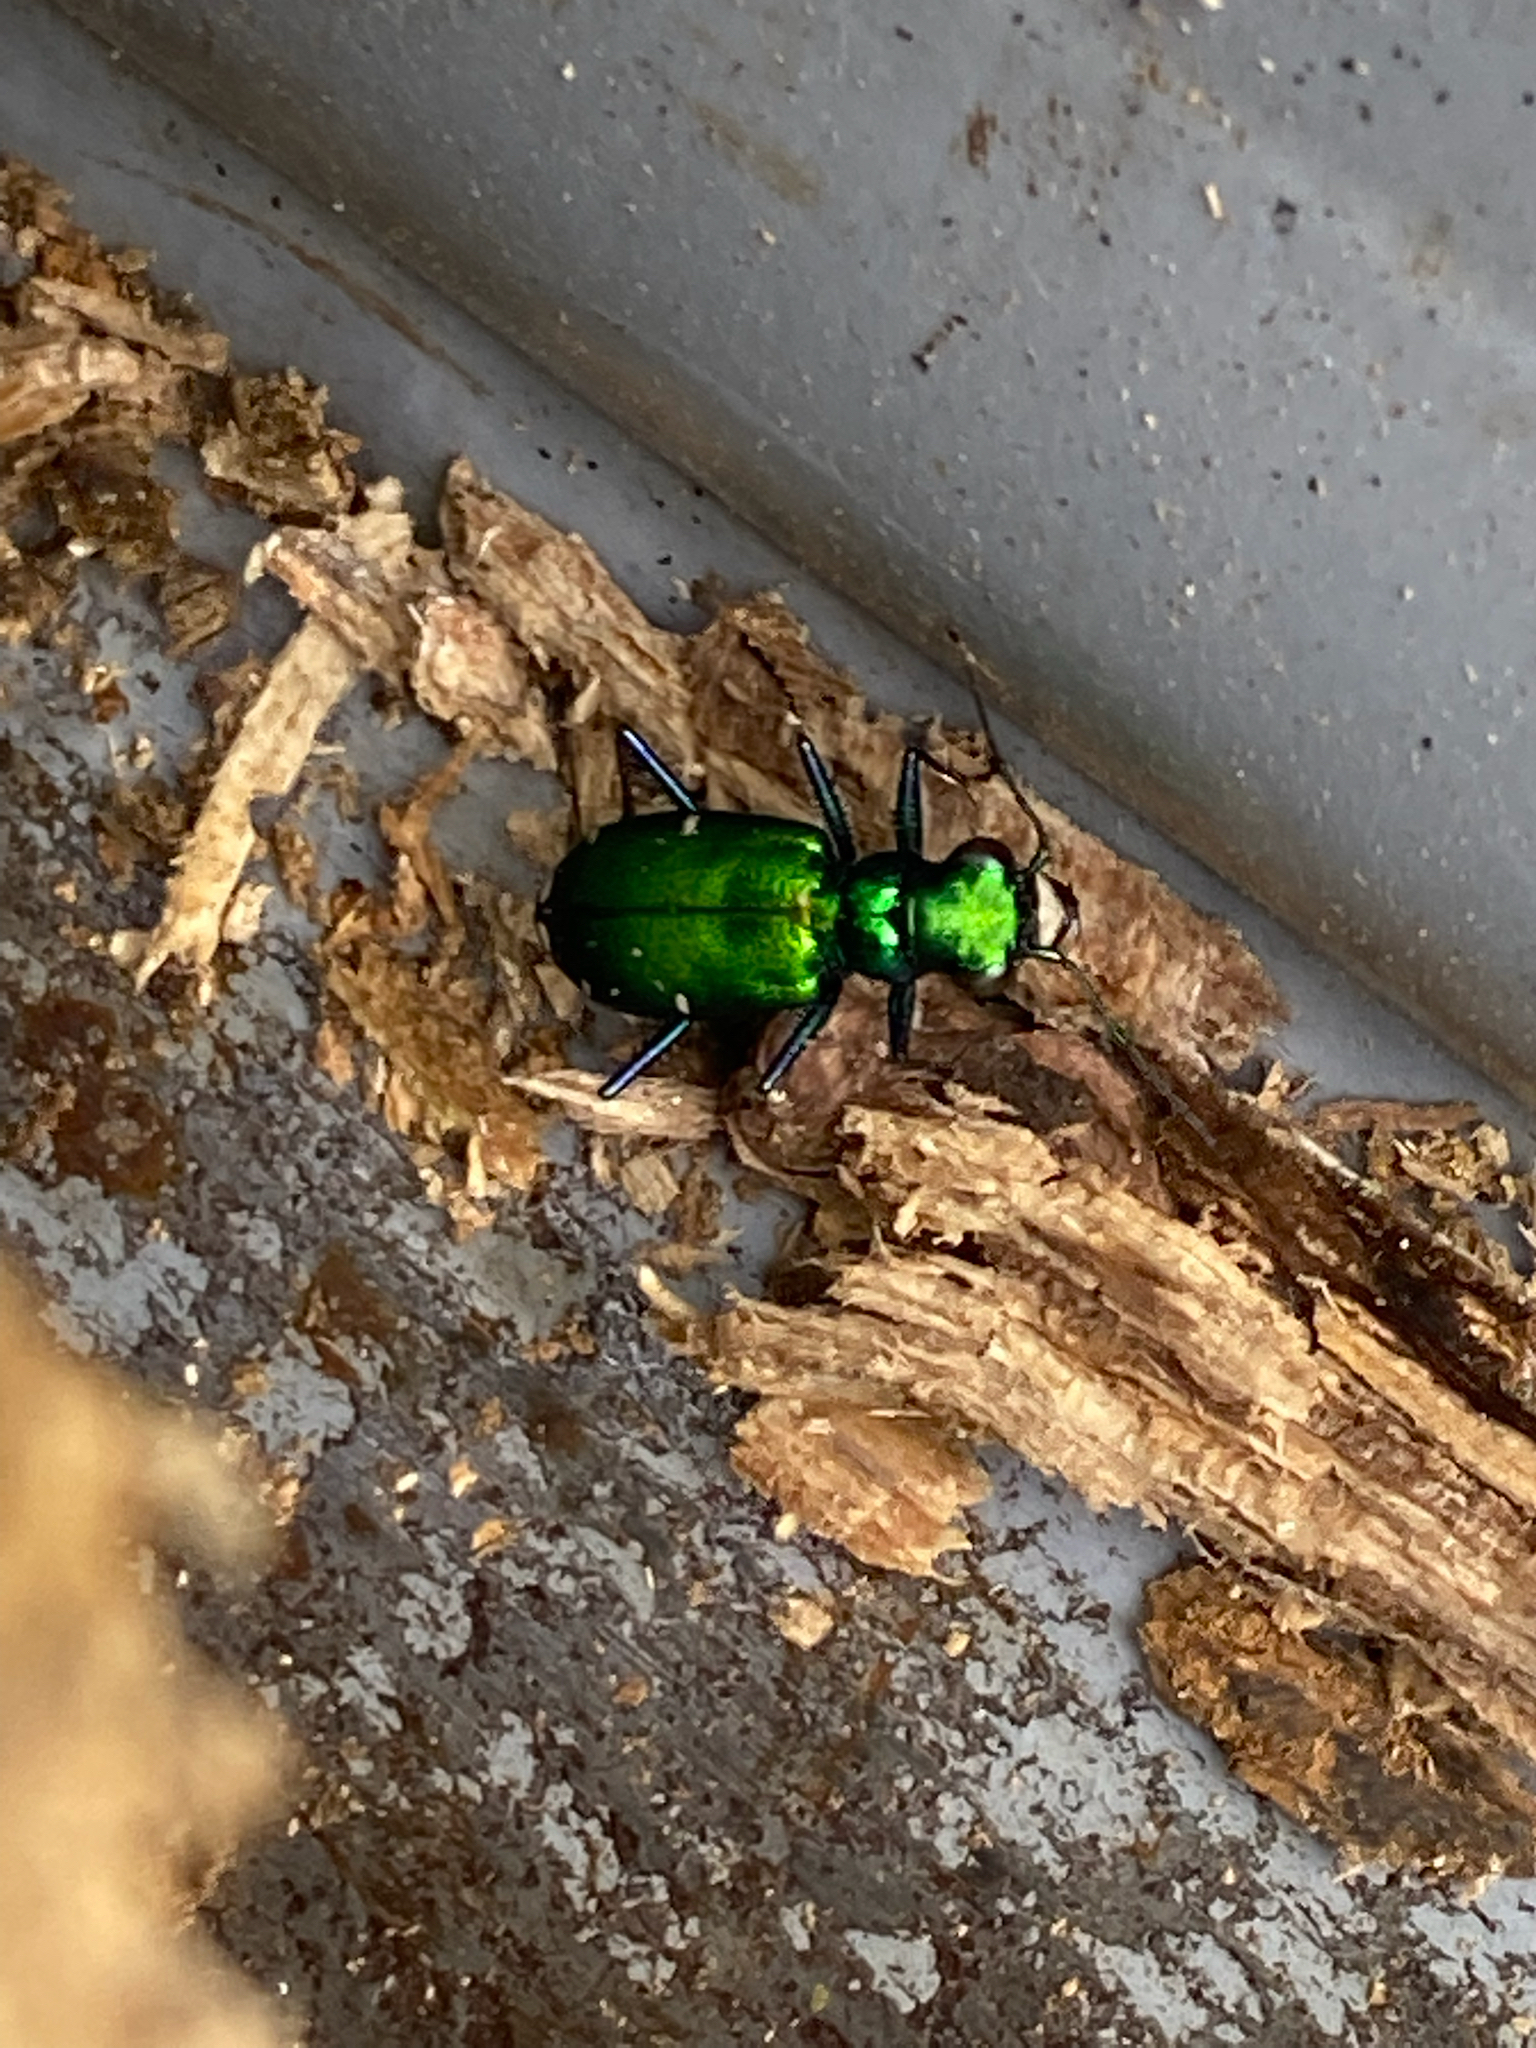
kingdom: Animalia
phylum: Arthropoda
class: Insecta
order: Coleoptera
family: Carabidae
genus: Cicindela
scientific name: Cicindela sexguttata
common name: Six-spotted tiger beetle
